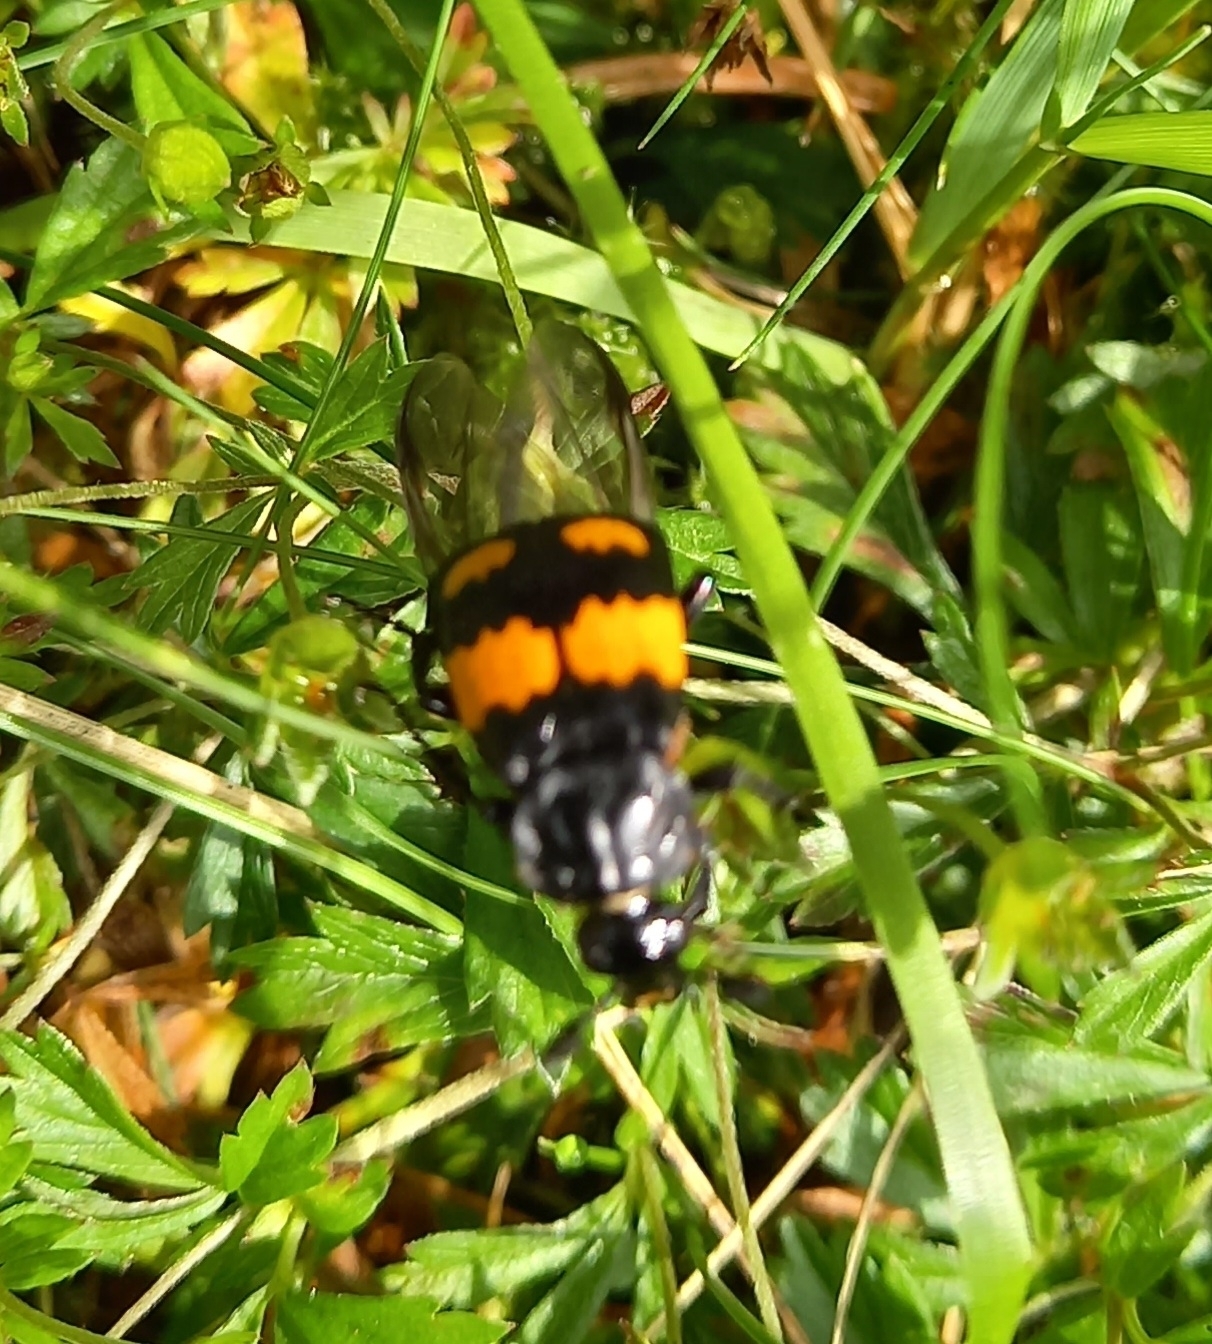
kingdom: Animalia
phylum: Arthropoda
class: Insecta
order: Coleoptera
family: Staphylinidae
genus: Nicrophorus
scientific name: Nicrophorus vespilloides
